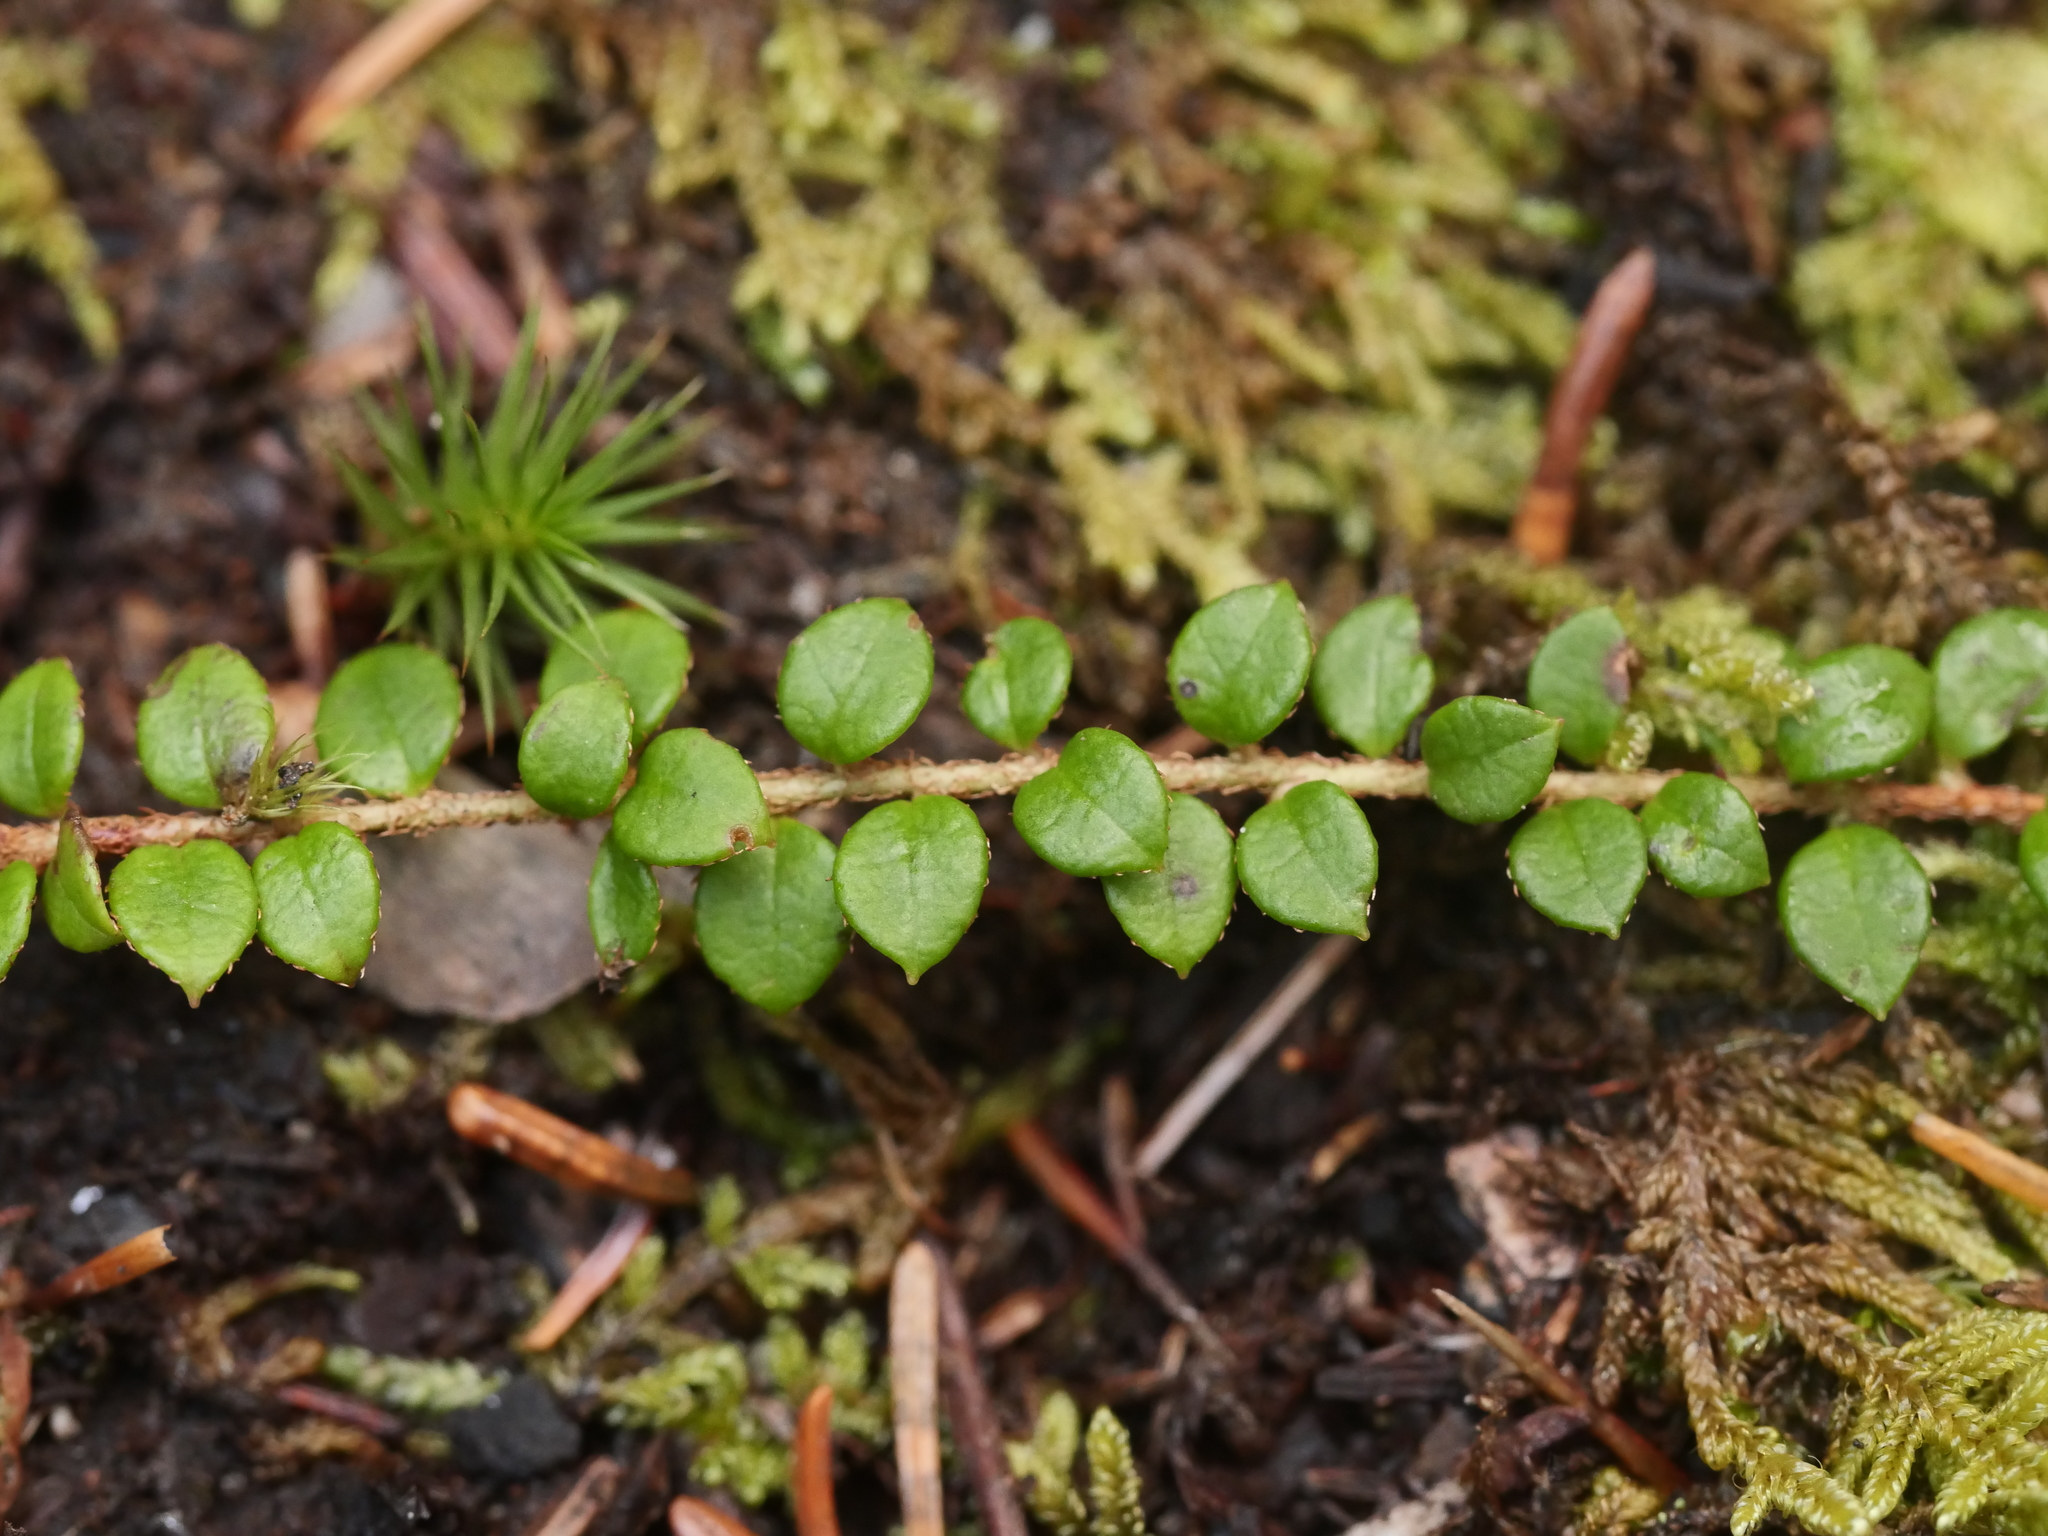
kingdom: Plantae
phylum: Tracheophyta
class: Magnoliopsida
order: Ericales
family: Ericaceae
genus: Gaultheria
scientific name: Gaultheria hispidula
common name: Cancer wintergreen
